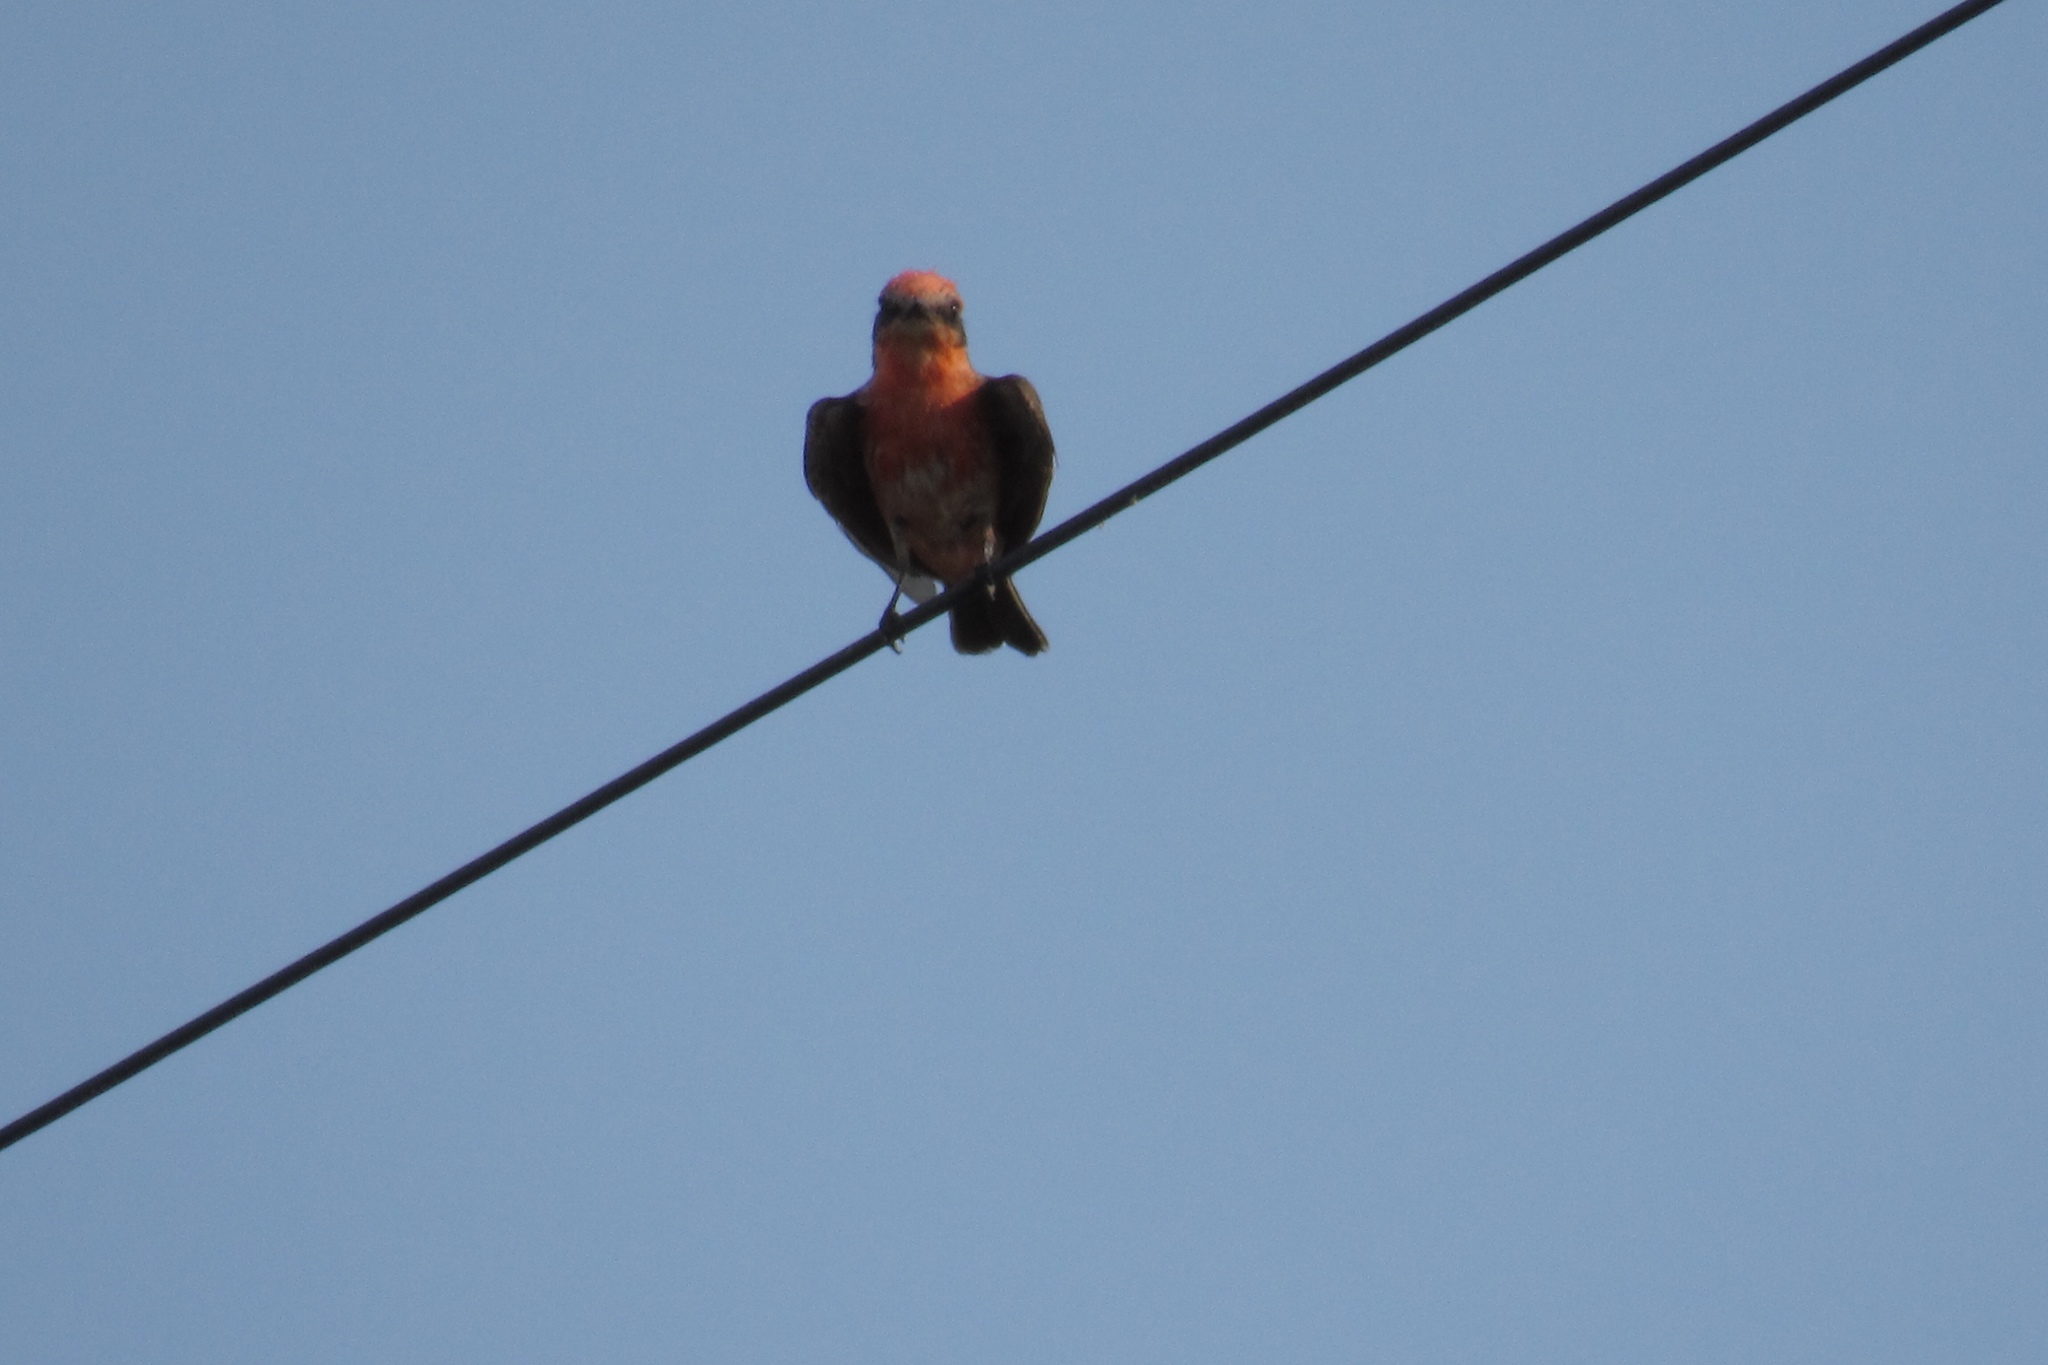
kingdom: Animalia
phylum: Chordata
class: Aves
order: Passeriformes
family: Tyrannidae
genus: Pyrocephalus
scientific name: Pyrocephalus rubinus
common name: Vermilion flycatcher
